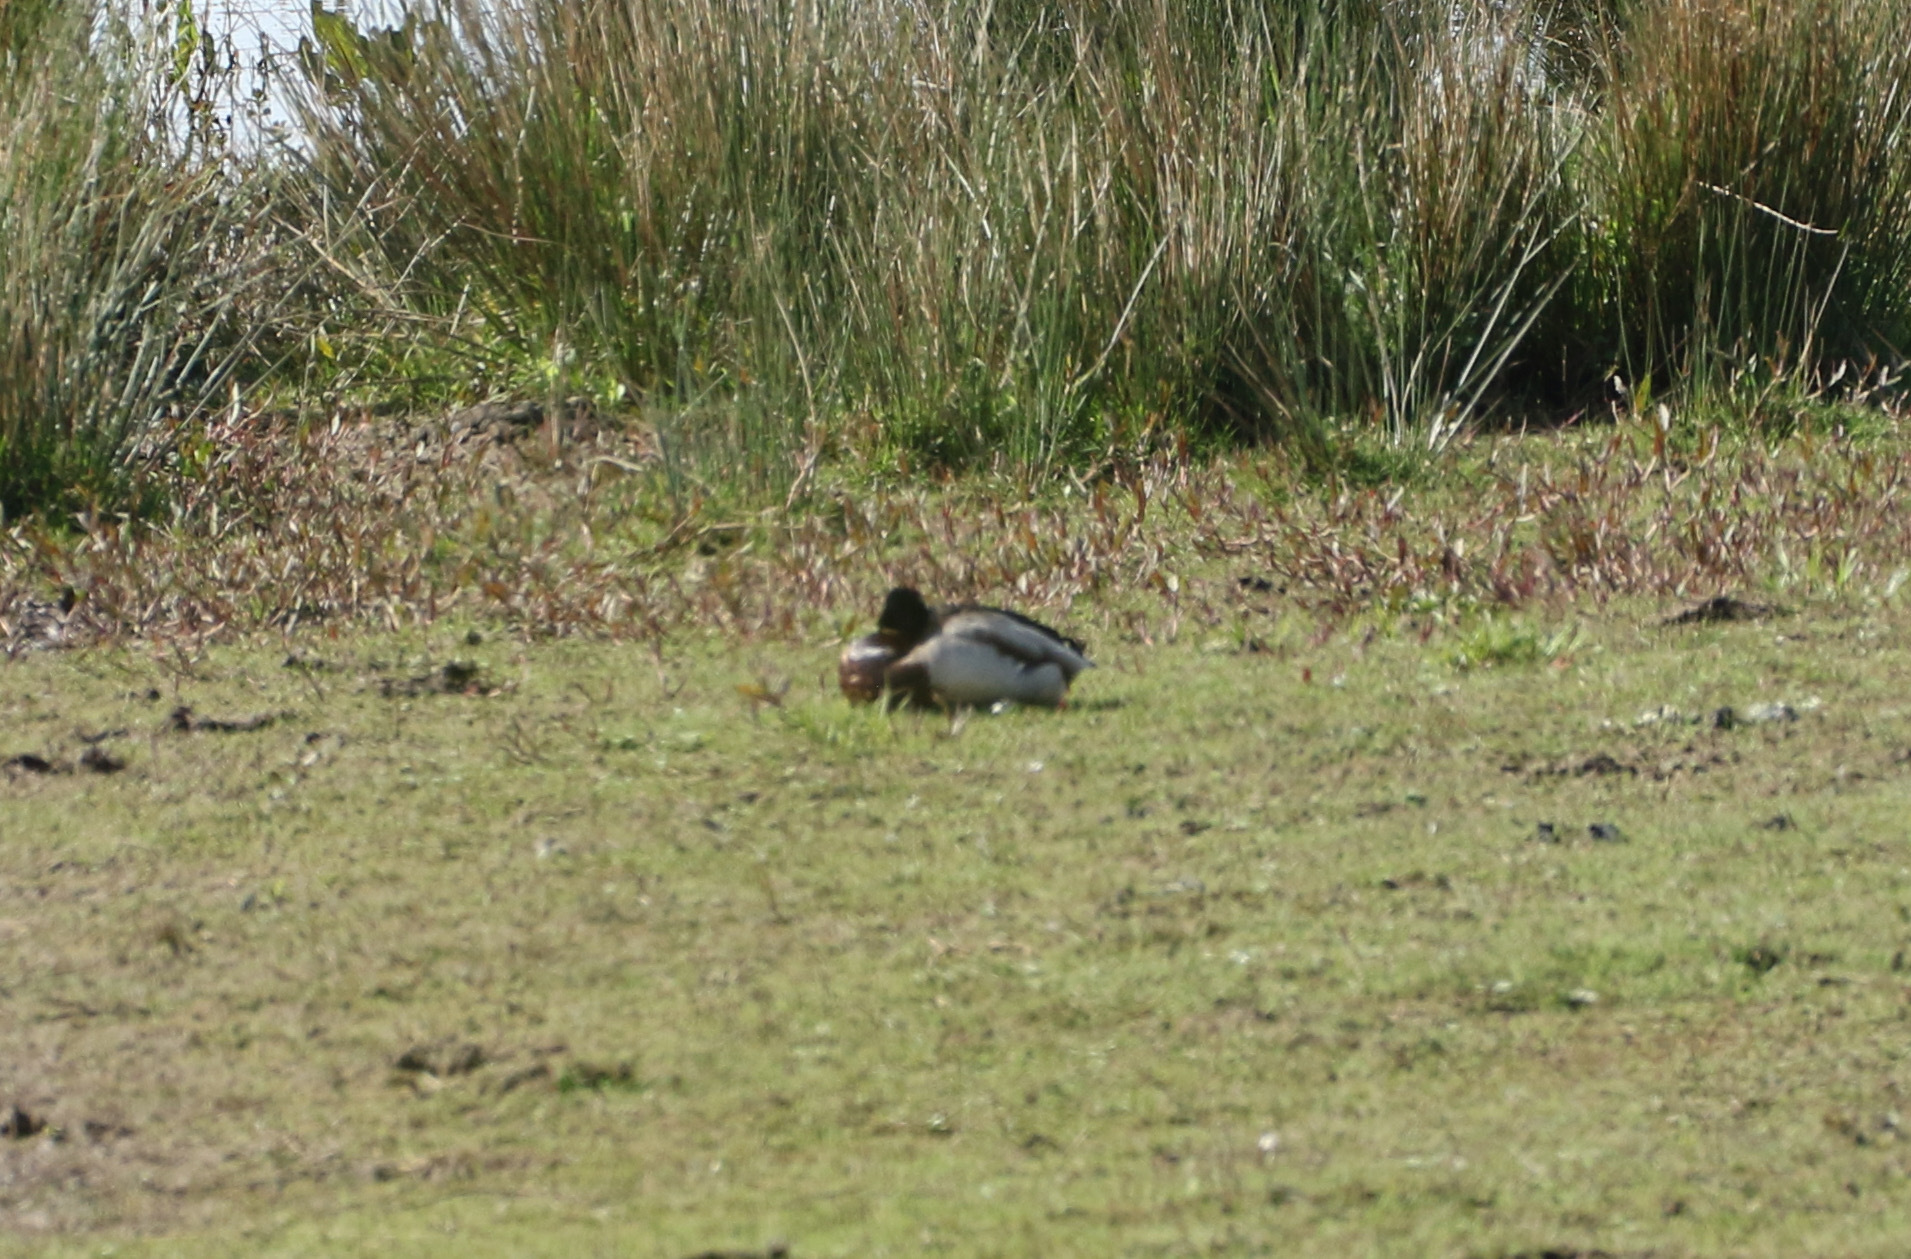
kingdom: Animalia
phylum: Chordata
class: Aves
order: Anseriformes
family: Anatidae
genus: Anas
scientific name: Anas platyrhynchos
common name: Mallard
